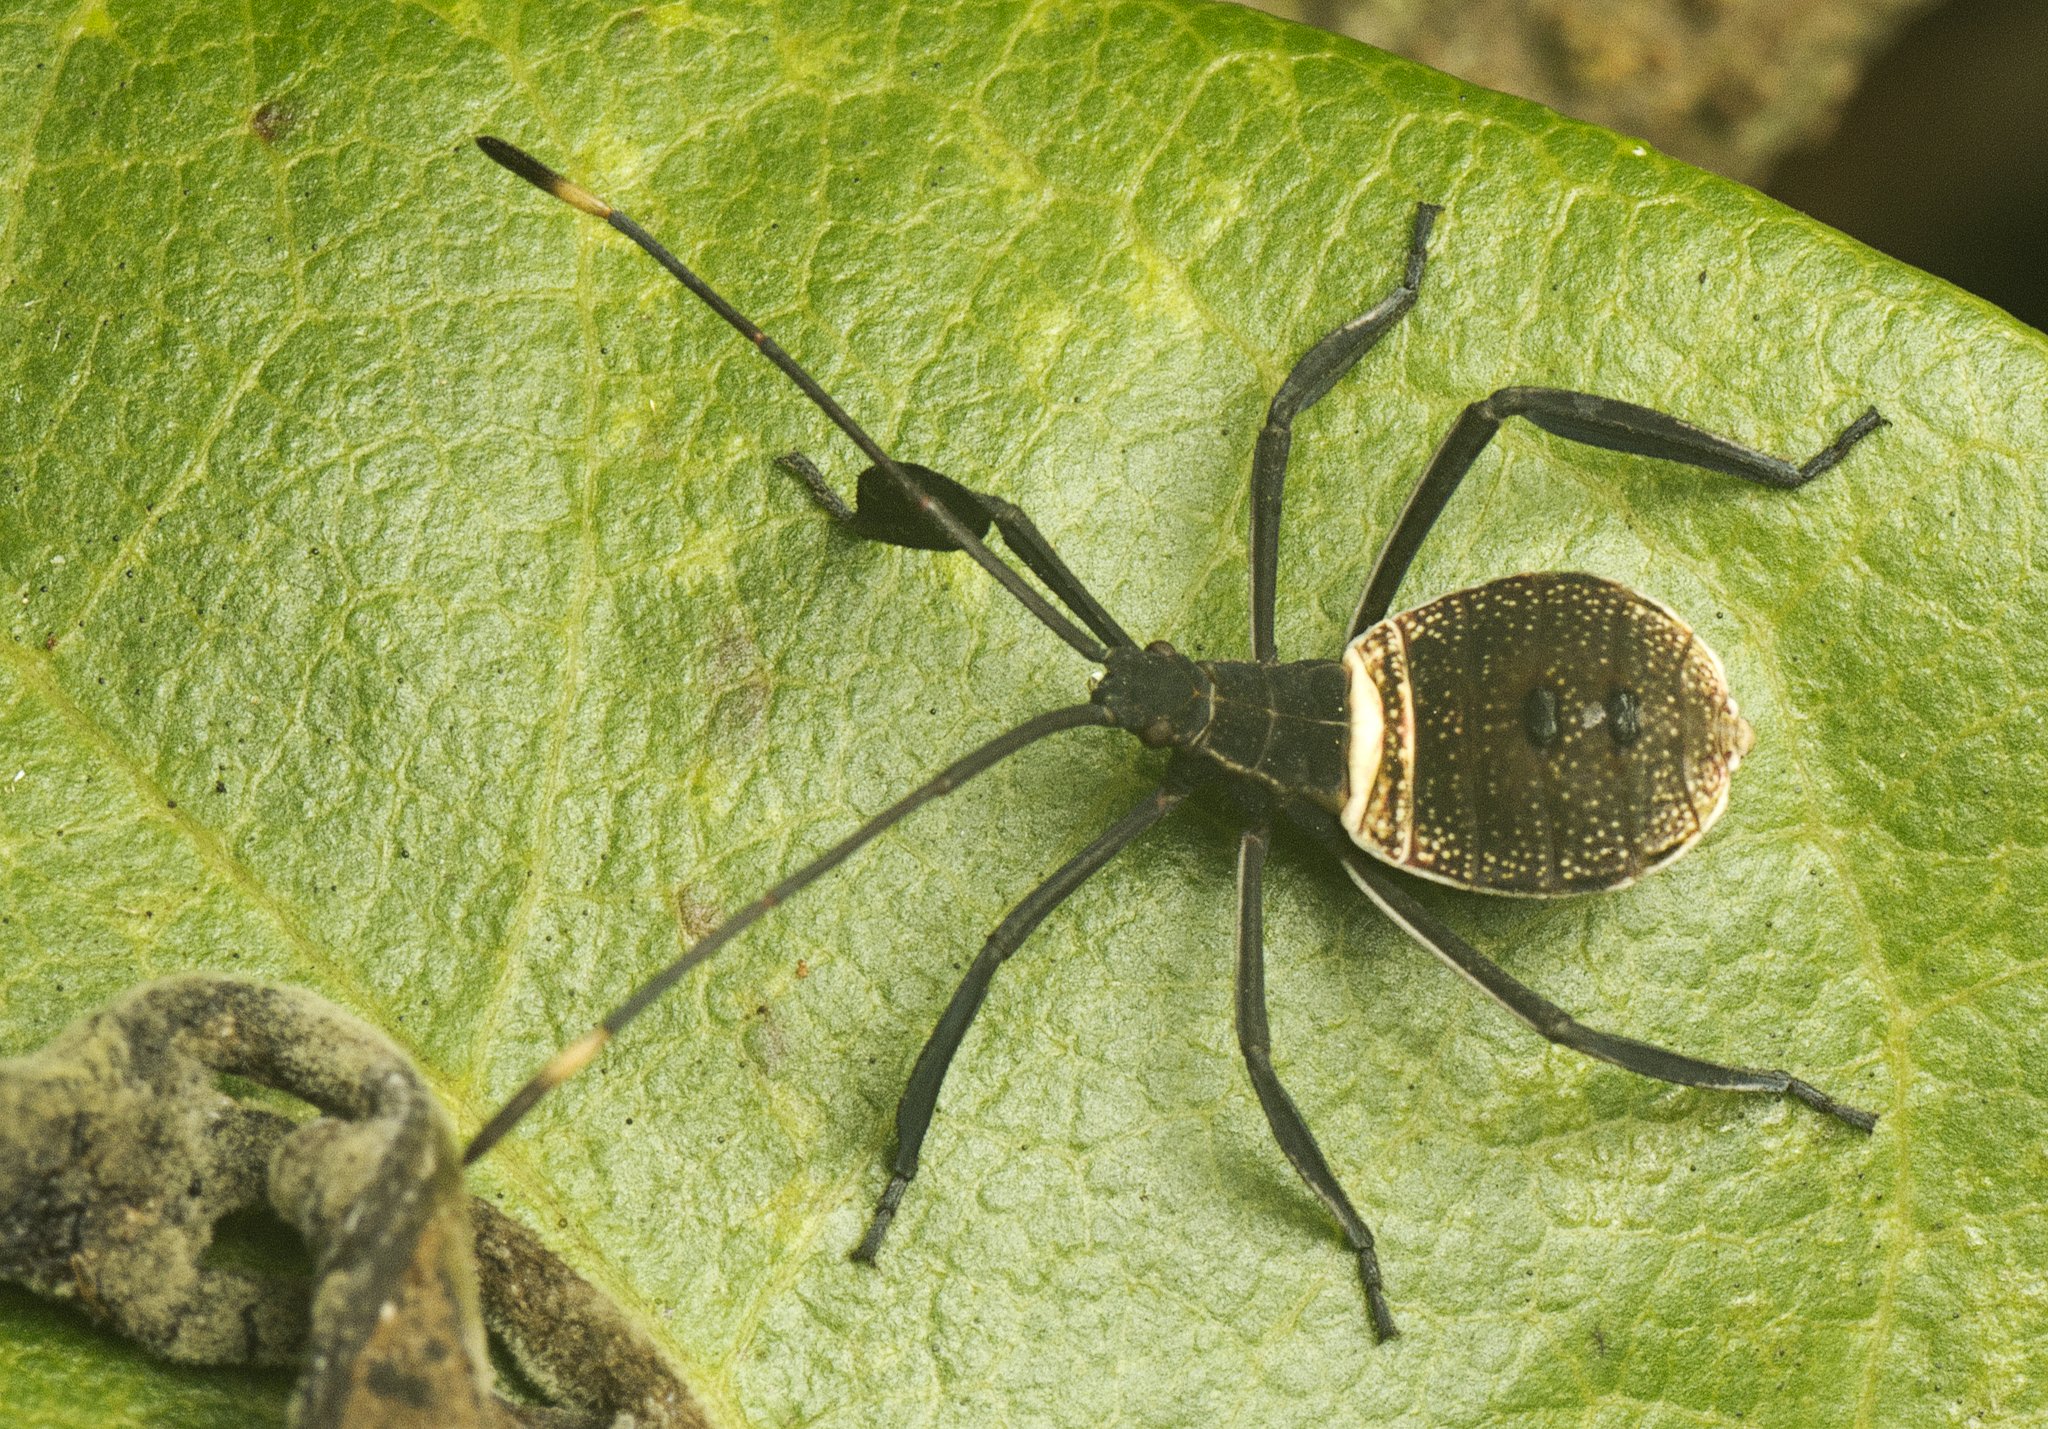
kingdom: Animalia
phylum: Arthropoda
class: Insecta
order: Hemiptera
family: Coreidae
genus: Mictis
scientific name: Mictis caja
